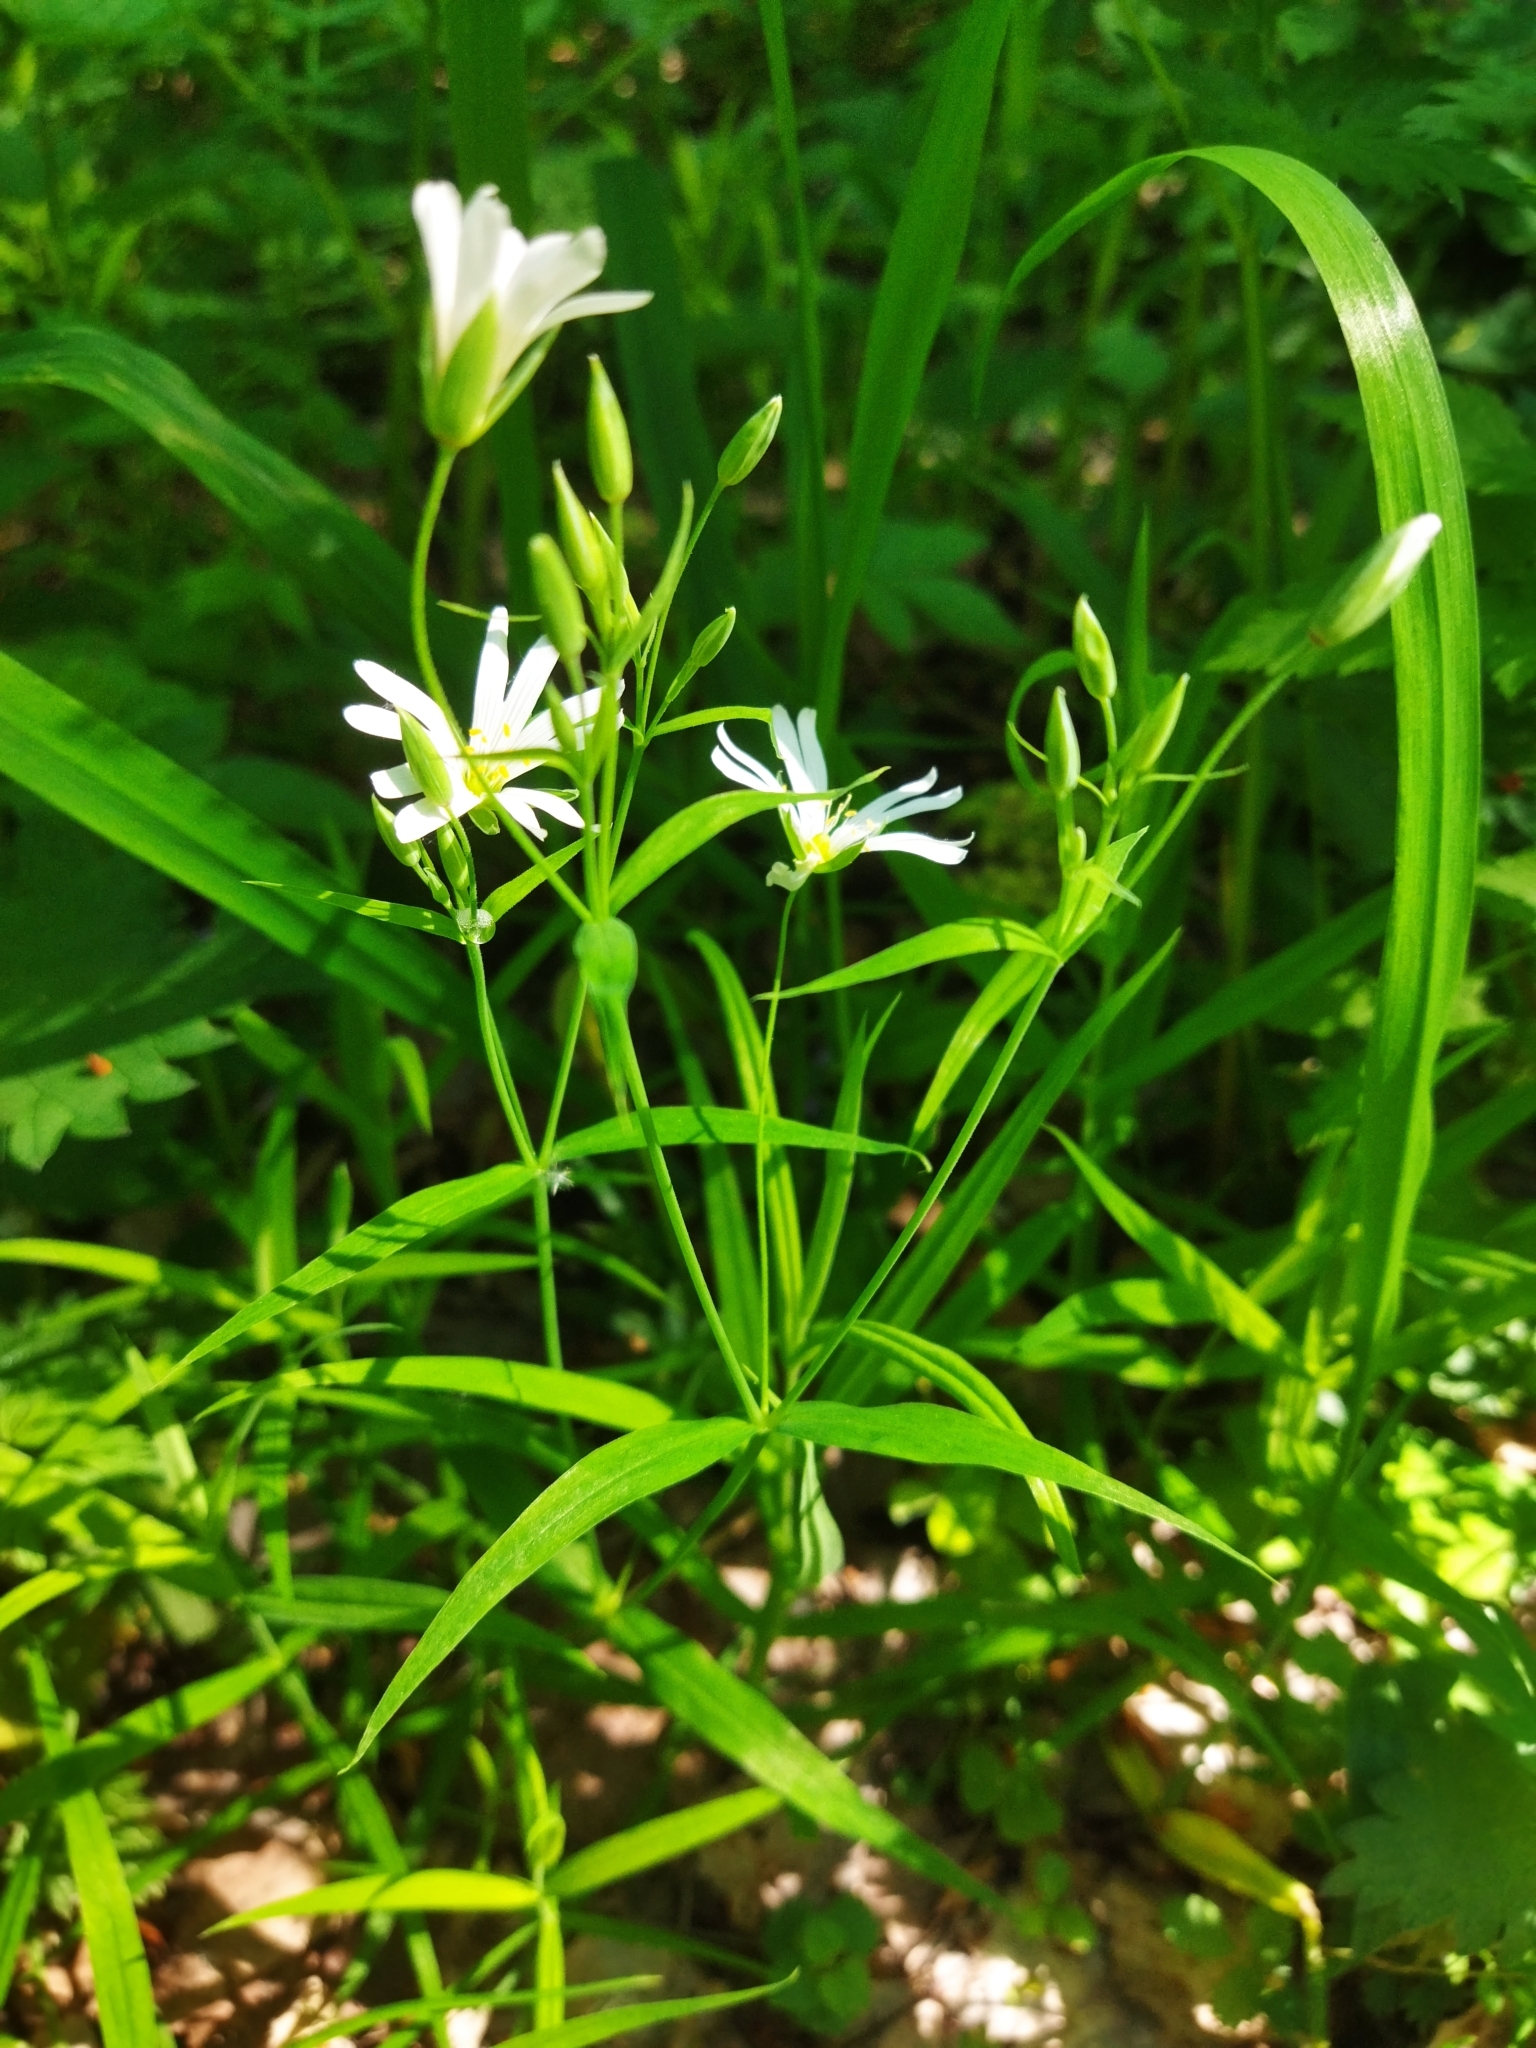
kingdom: Plantae
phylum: Tracheophyta
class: Magnoliopsida
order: Caryophyllales
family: Caryophyllaceae
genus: Rabelera
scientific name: Rabelera holostea
